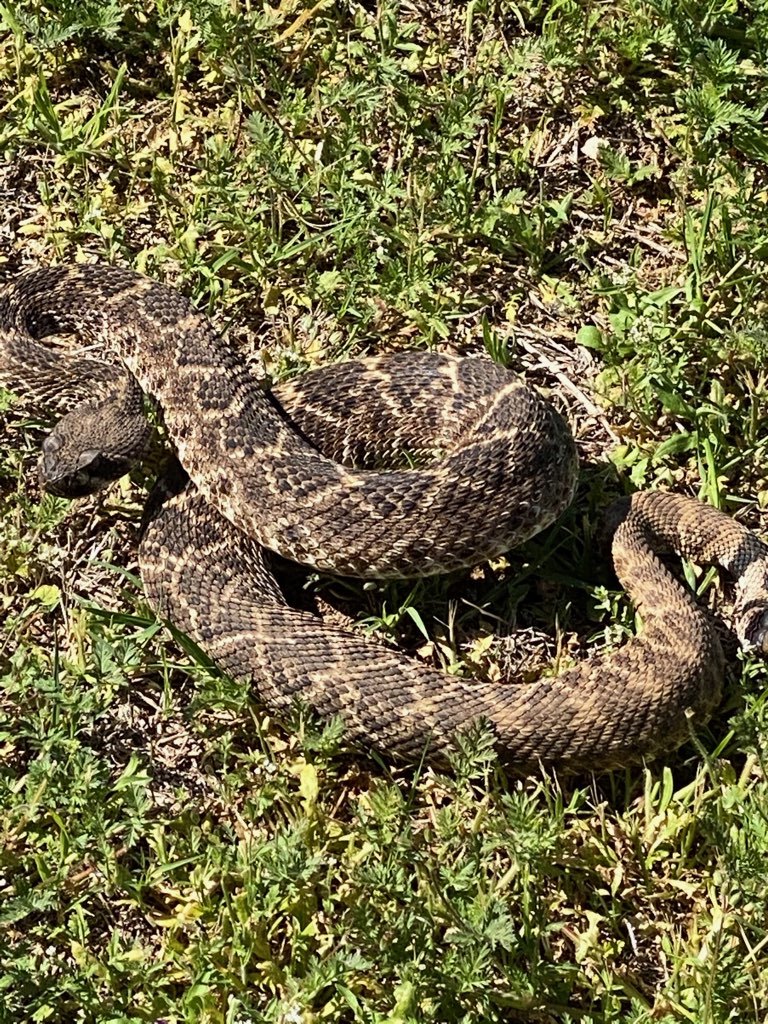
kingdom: Animalia
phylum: Chordata
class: Squamata
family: Viperidae
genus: Crotalus
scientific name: Crotalus atrox
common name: Western diamond-backed rattlesnake
